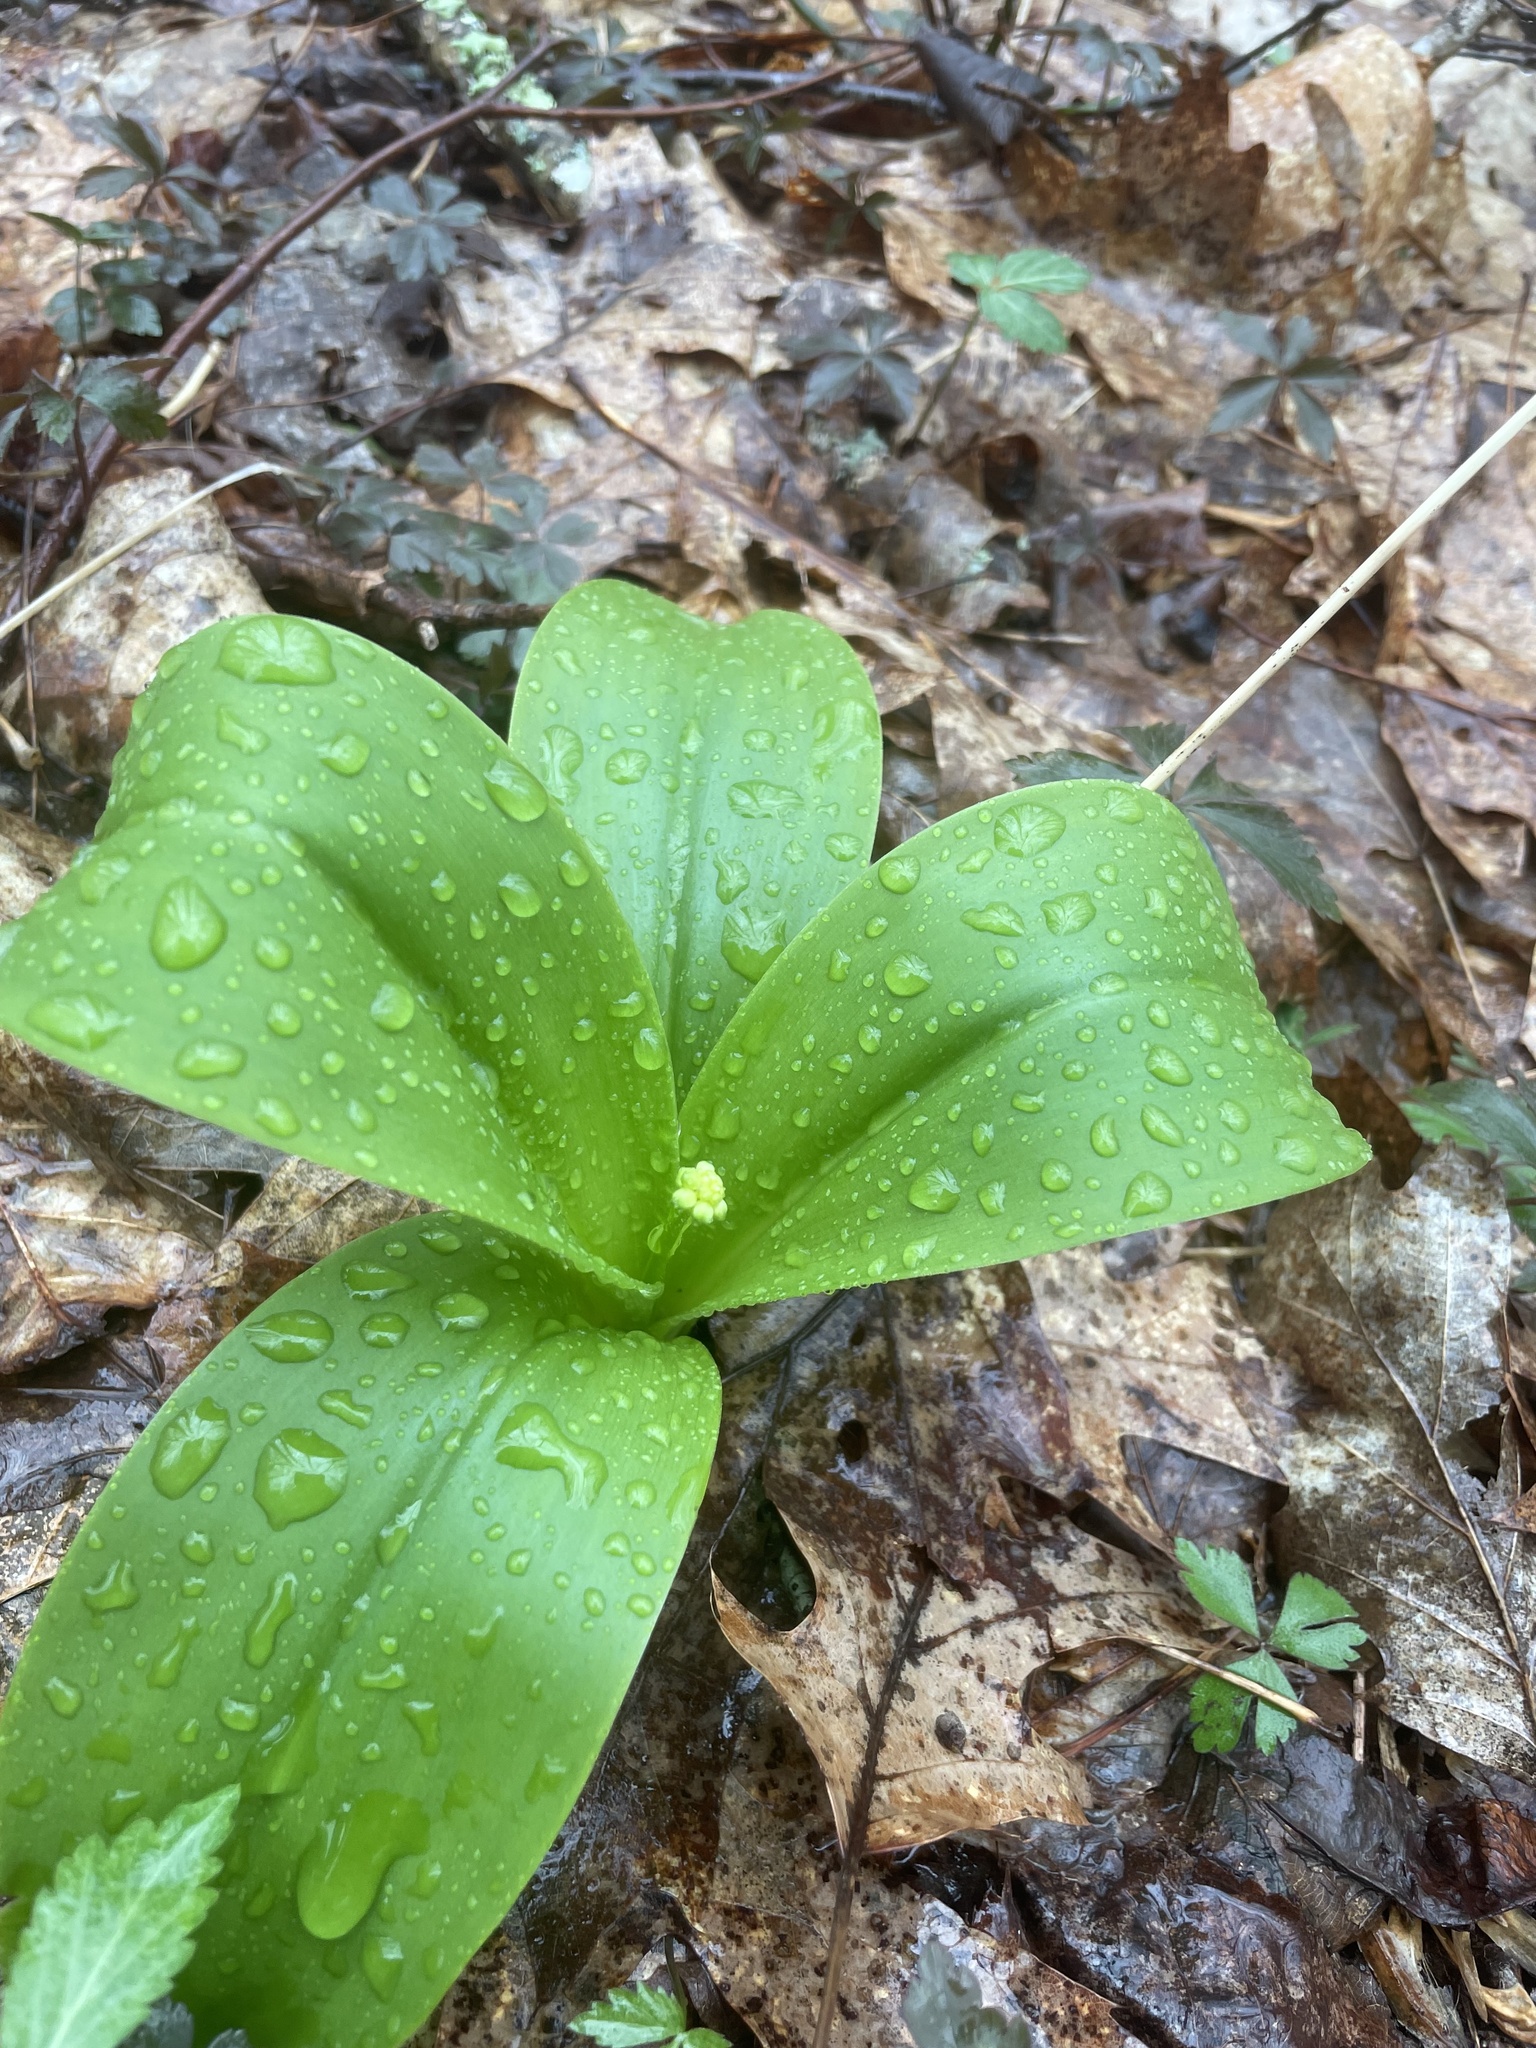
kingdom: Plantae
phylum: Tracheophyta
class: Liliopsida
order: Liliales
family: Liliaceae
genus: Clintonia
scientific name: Clintonia umbellulata
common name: Speckle wood-lily
